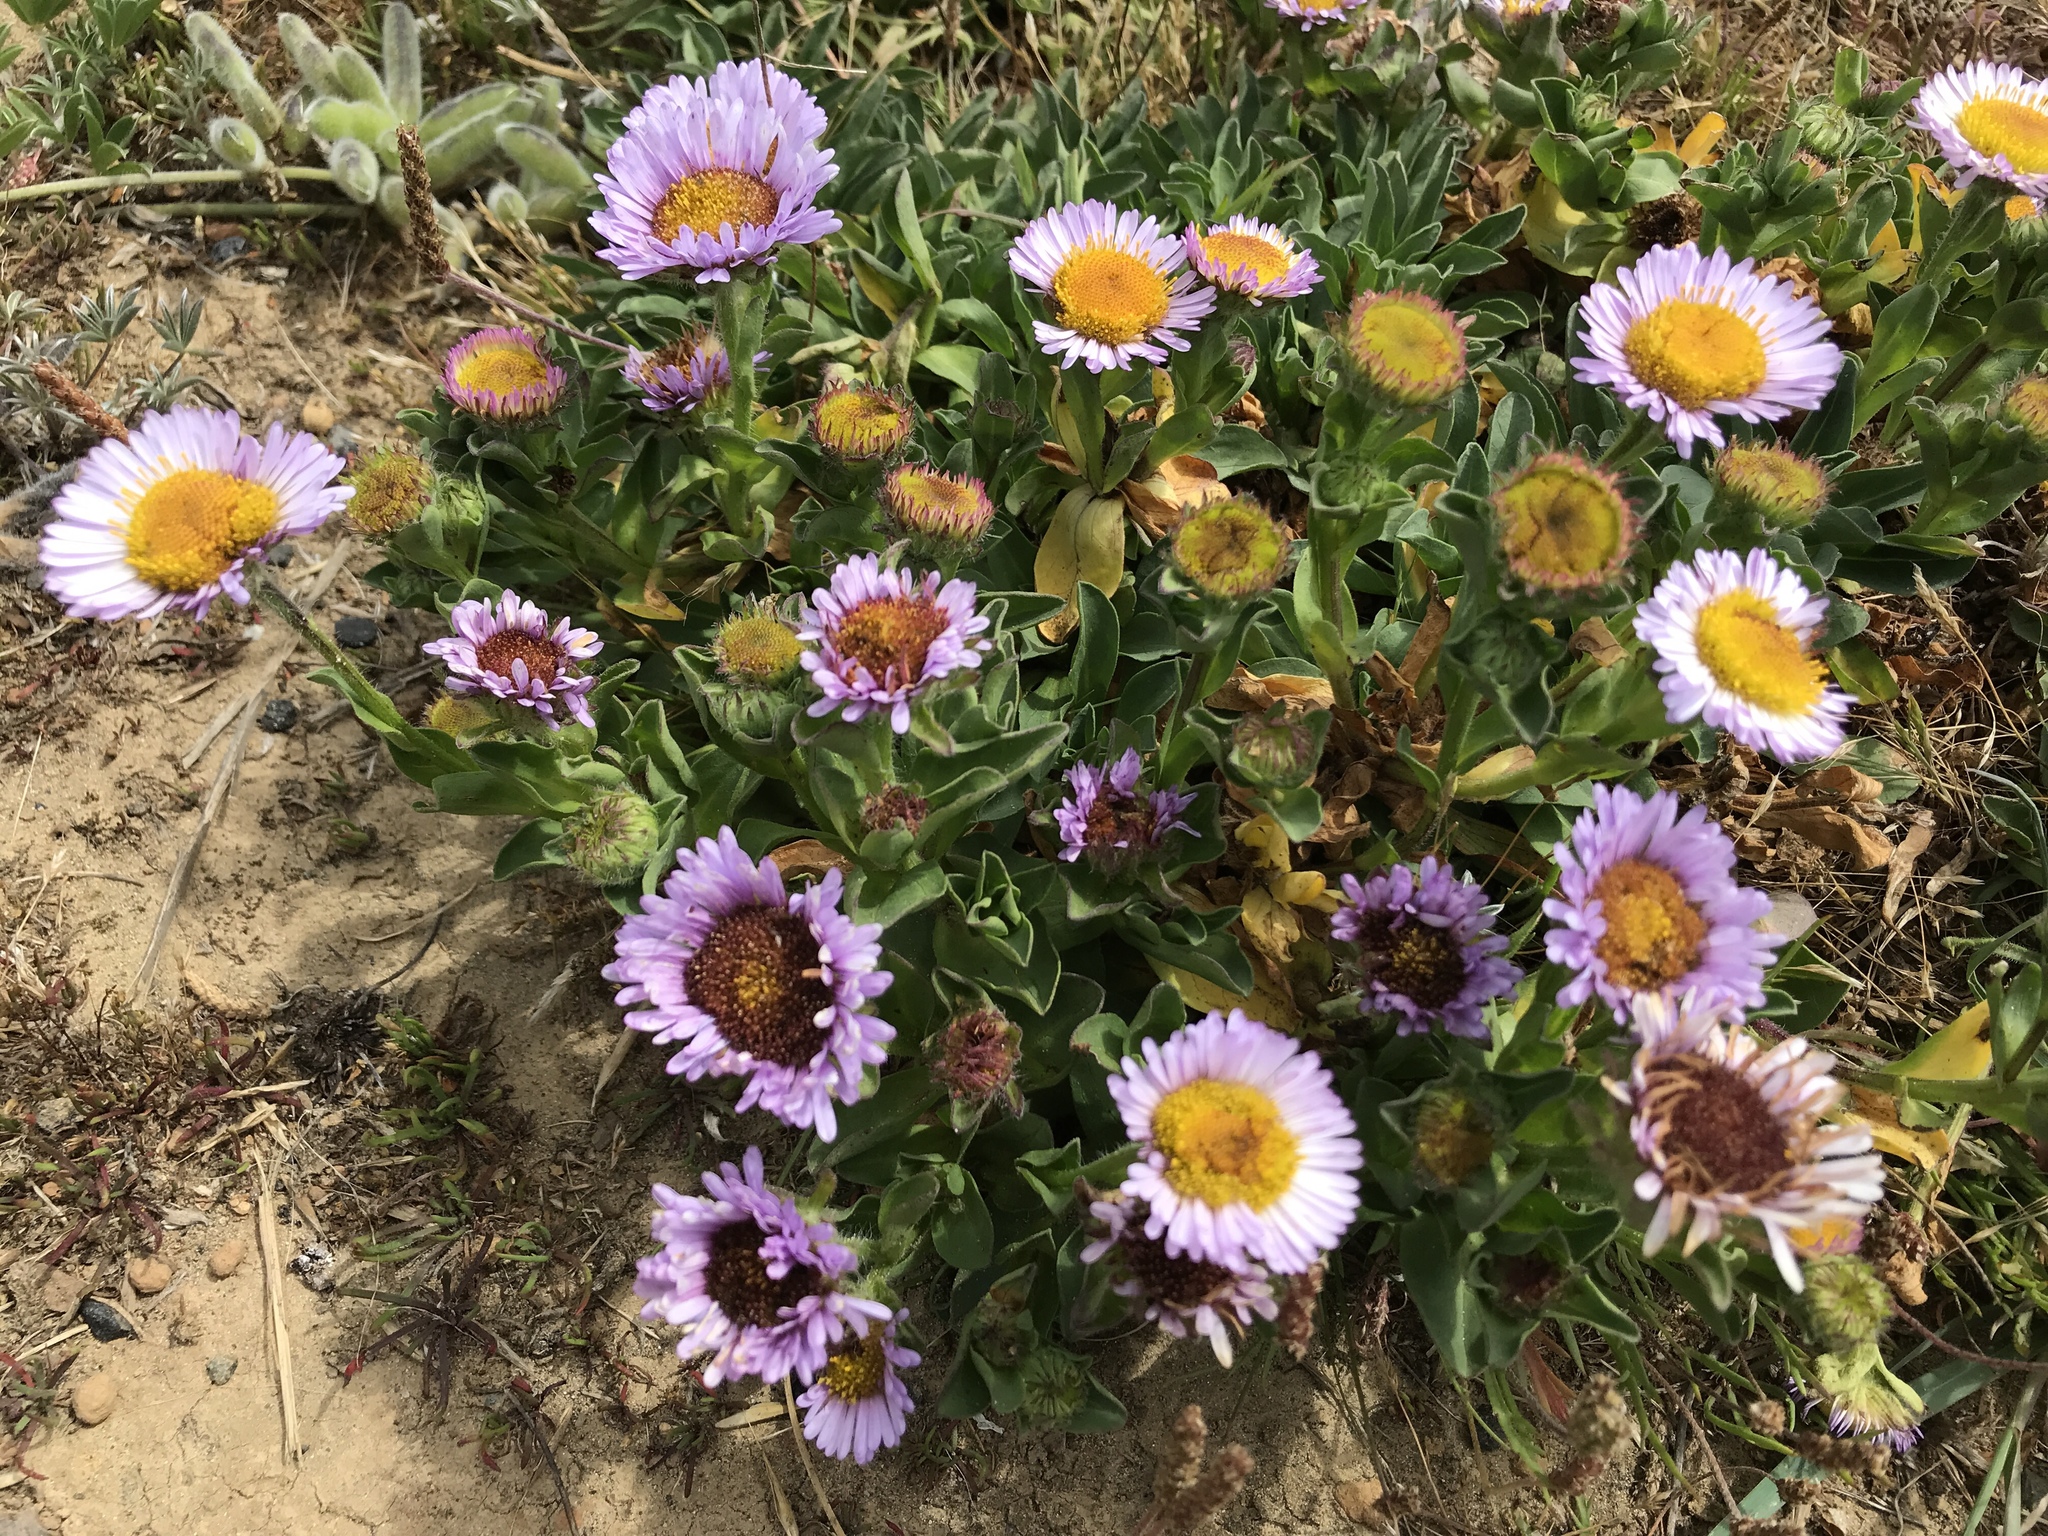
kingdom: Plantae
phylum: Tracheophyta
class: Magnoliopsida
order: Asterales
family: Asteraceae
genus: Erigeron
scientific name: Erigeron glaucus
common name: Seaside daisy
